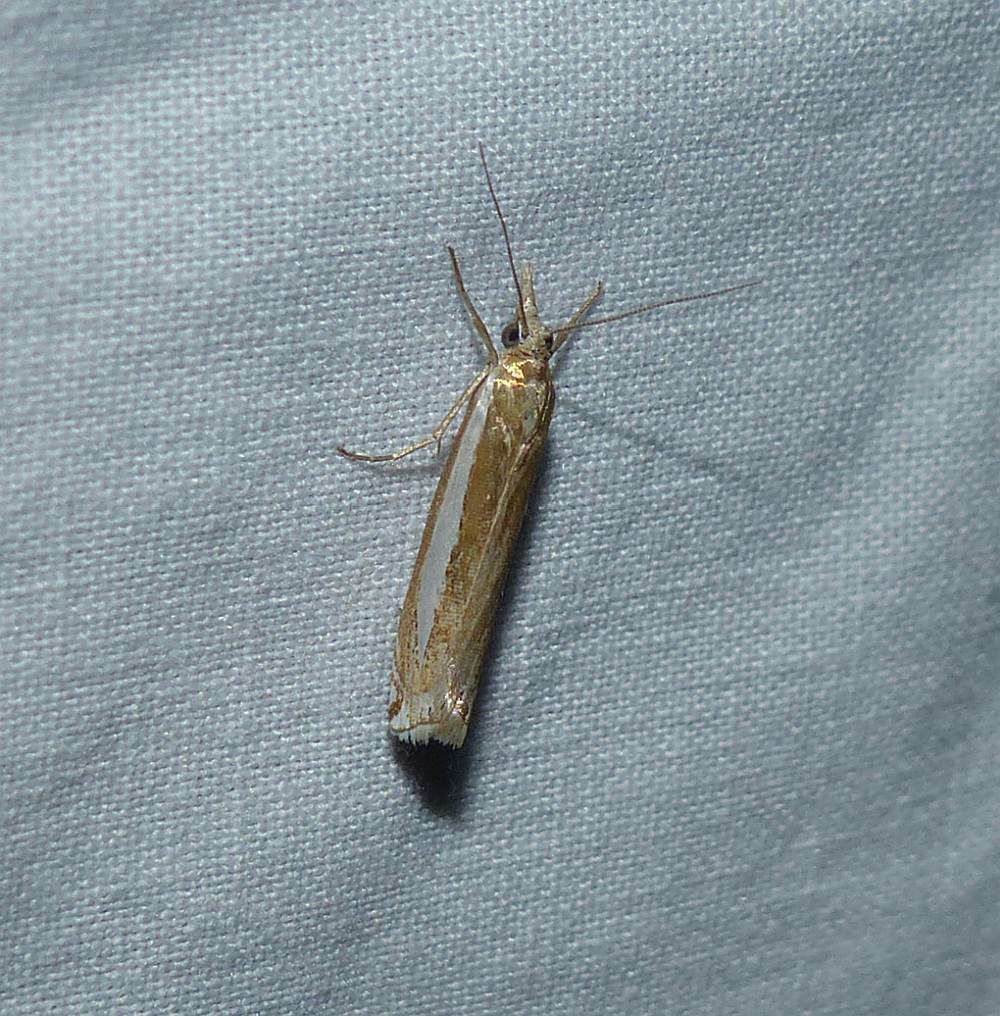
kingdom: Animalia
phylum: Arthropoda
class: Insecta
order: Lepidoptera
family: Crambidae
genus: Crambus
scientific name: Crambus praefectellus
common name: Common grass-veneer
